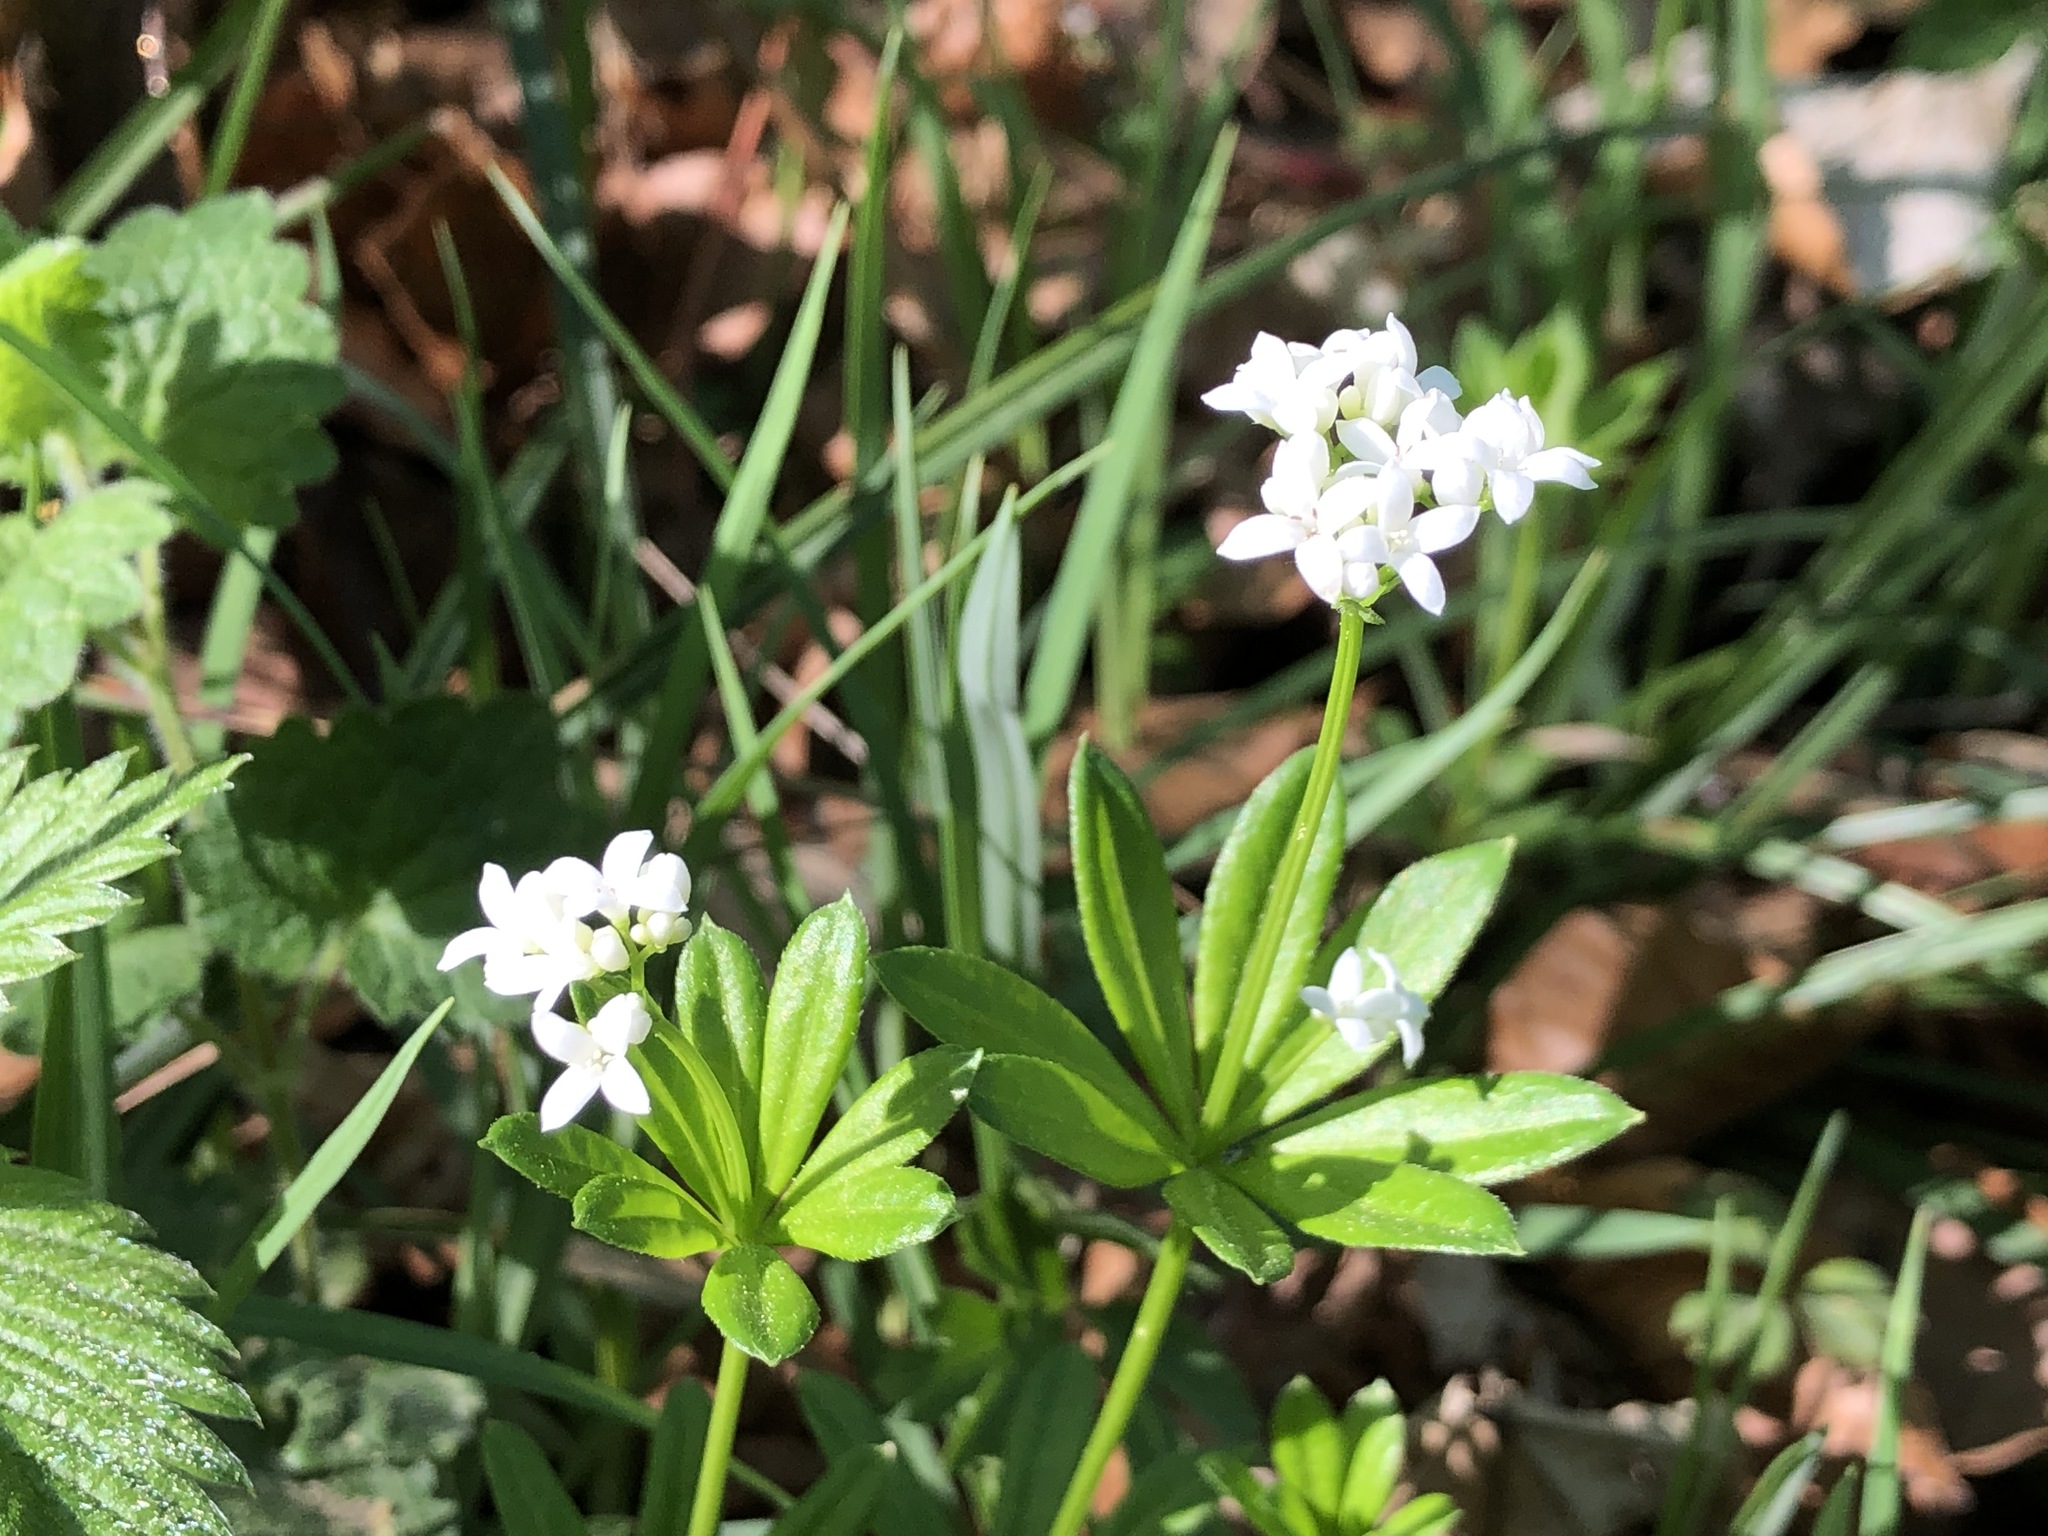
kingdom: Plantae
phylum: Tracheophyta
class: Magnoliopsida
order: Gentianales
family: Rubiaceae
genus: Galium
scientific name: Galium odoratum
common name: Sweet woodruff
